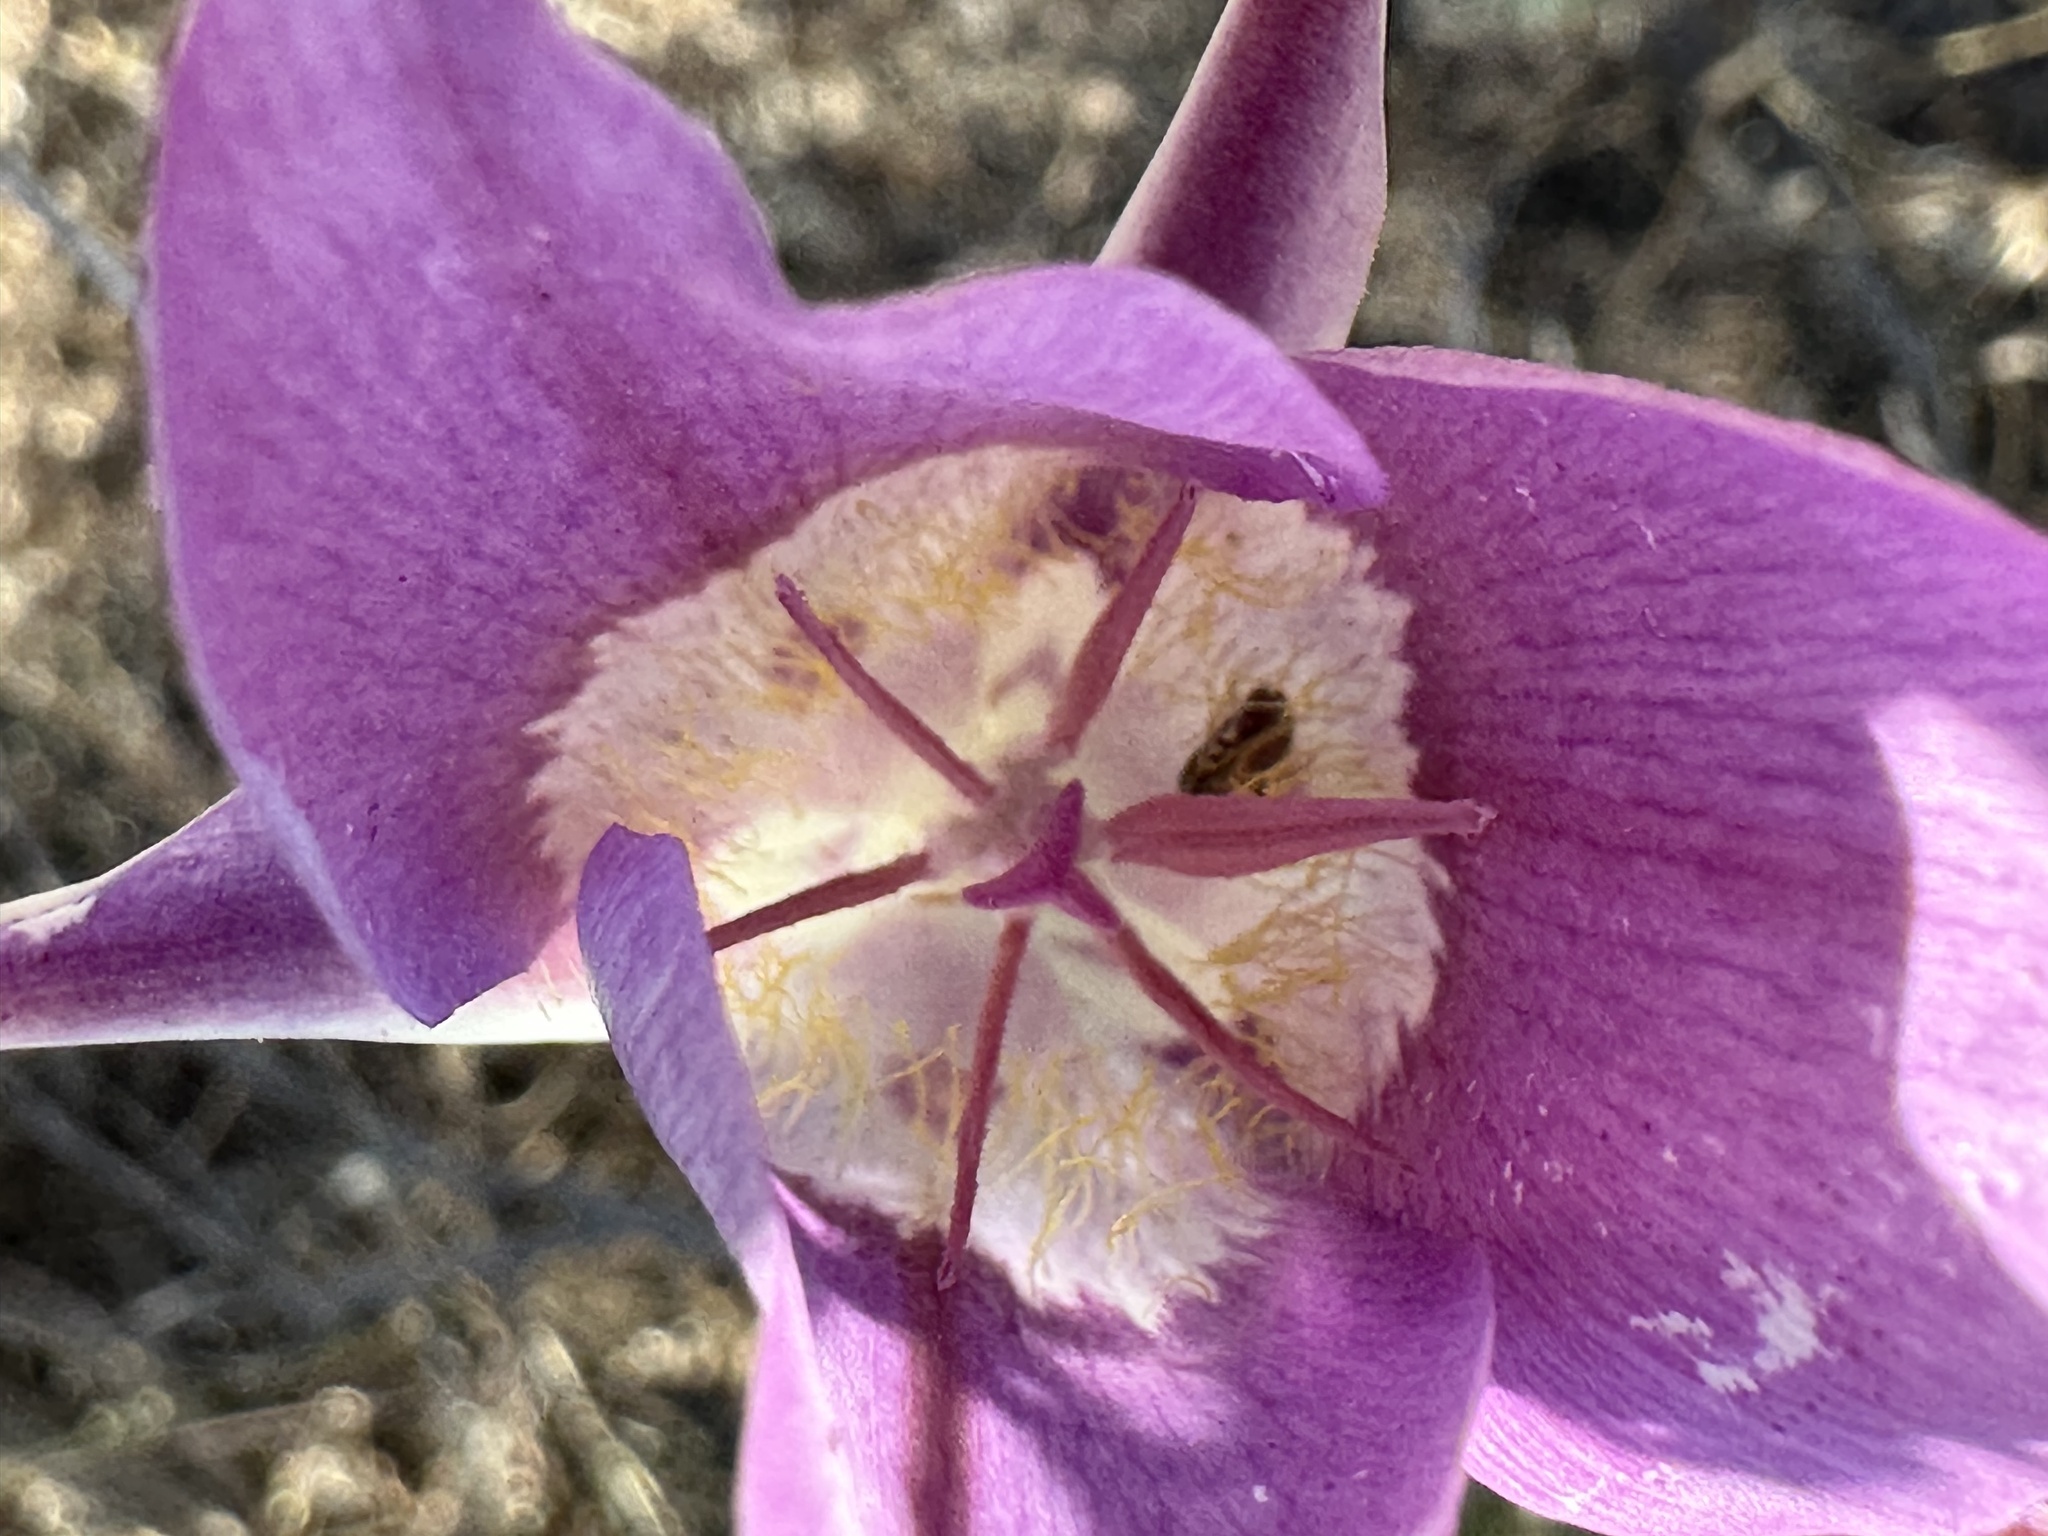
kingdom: Plantae
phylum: Tracheophyta
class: Liliopsida
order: Liliales
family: Liliaceae
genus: Calochortus
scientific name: Calochortus macrocarpus
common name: Green-band mariposa lily
